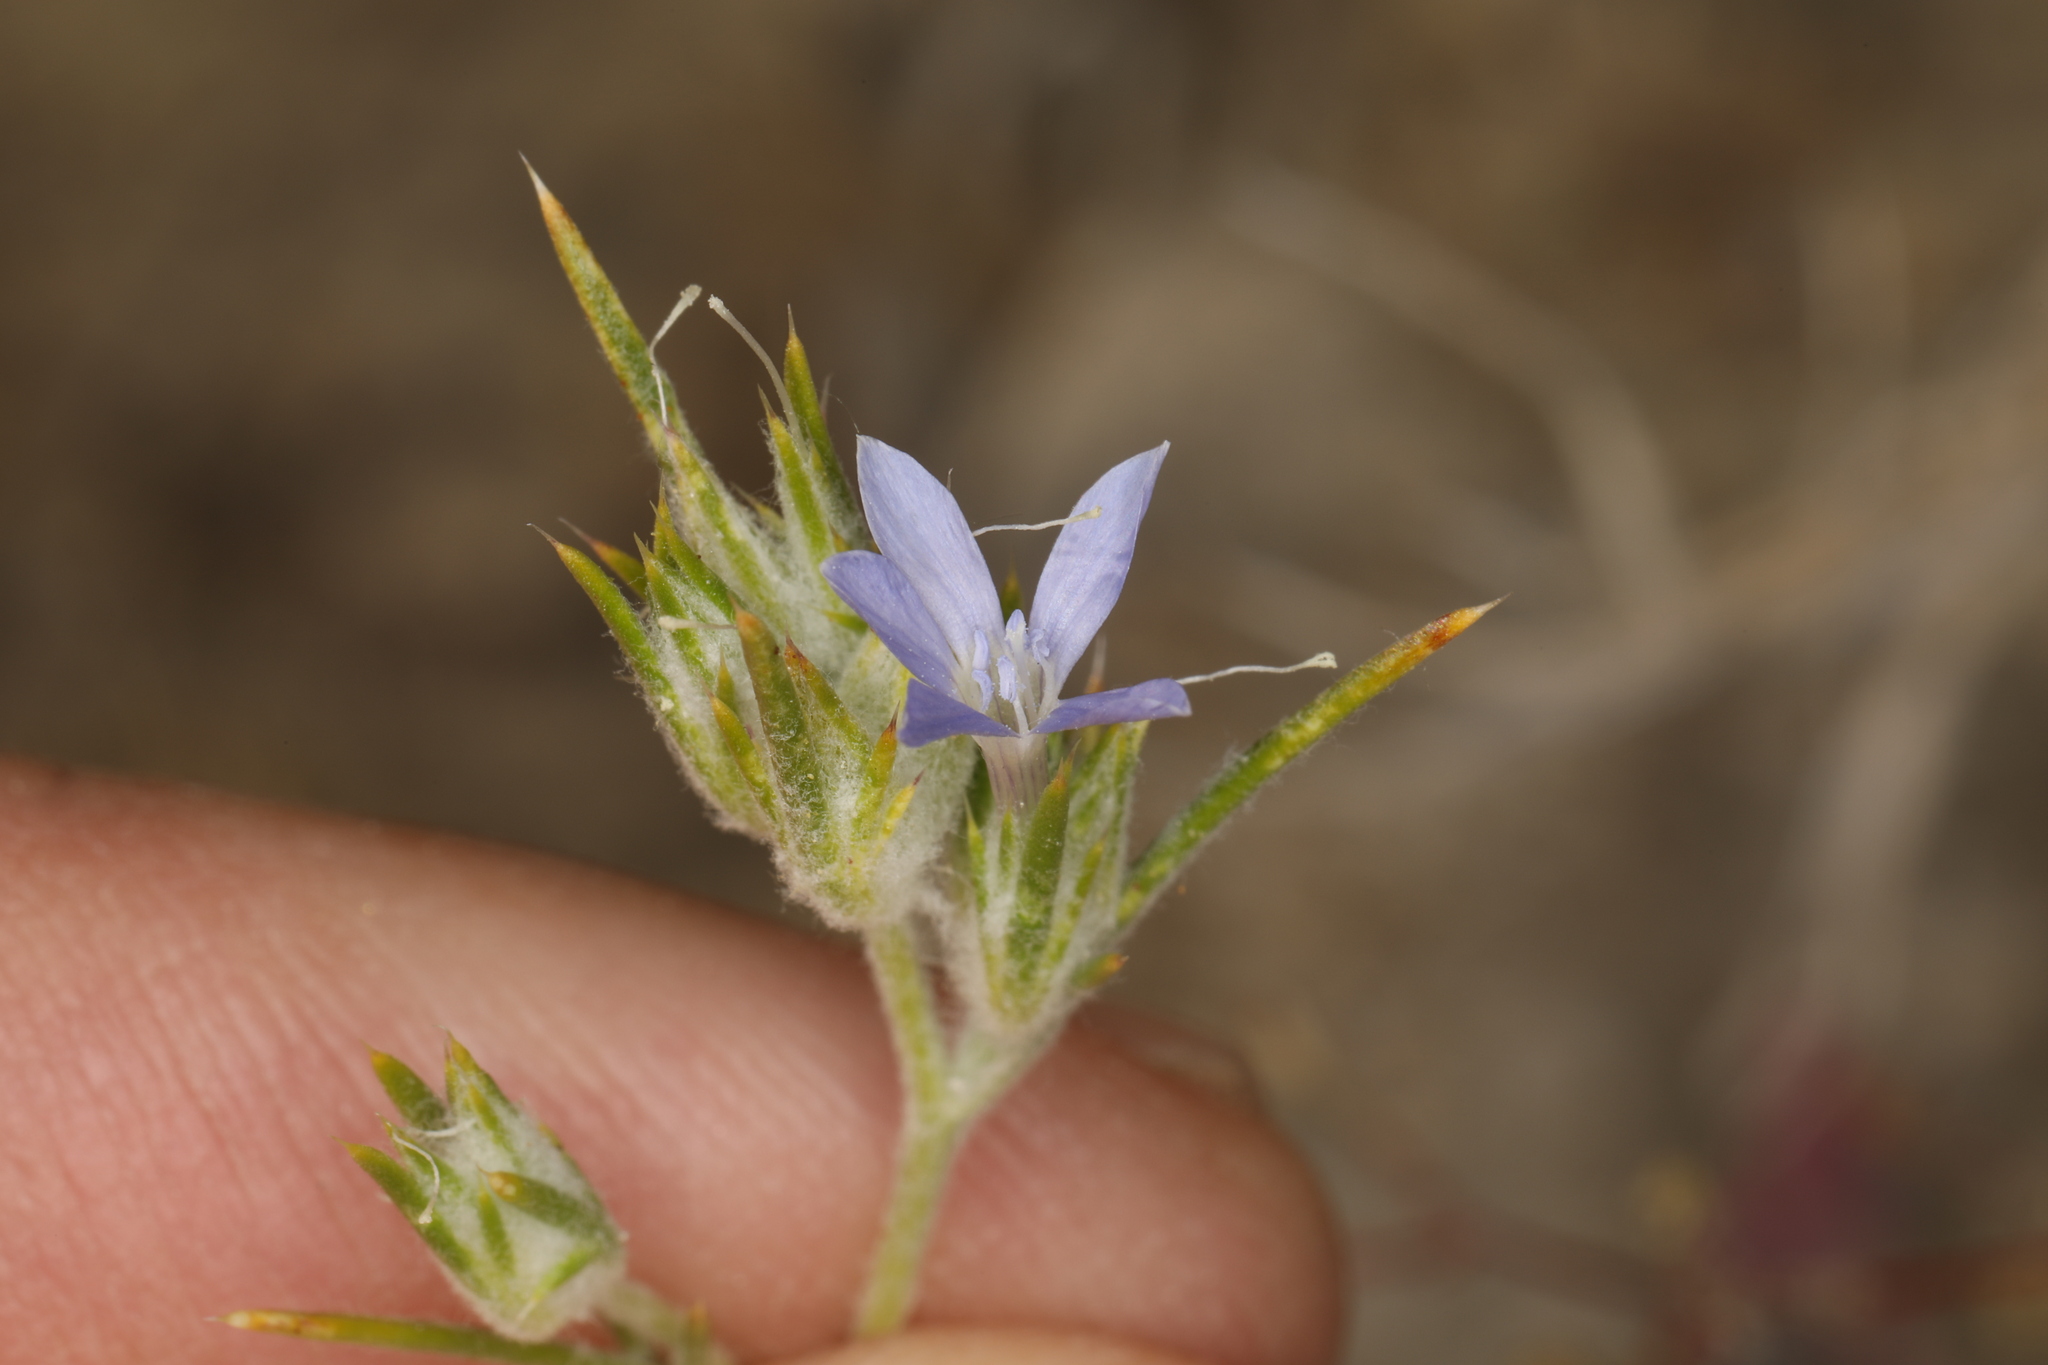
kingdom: Plantae
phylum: Tracheophyta
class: Magnoliopsida
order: Ericales
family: Polemoniaceae
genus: Eriastrum
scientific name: Eriastrum wilcoxii
